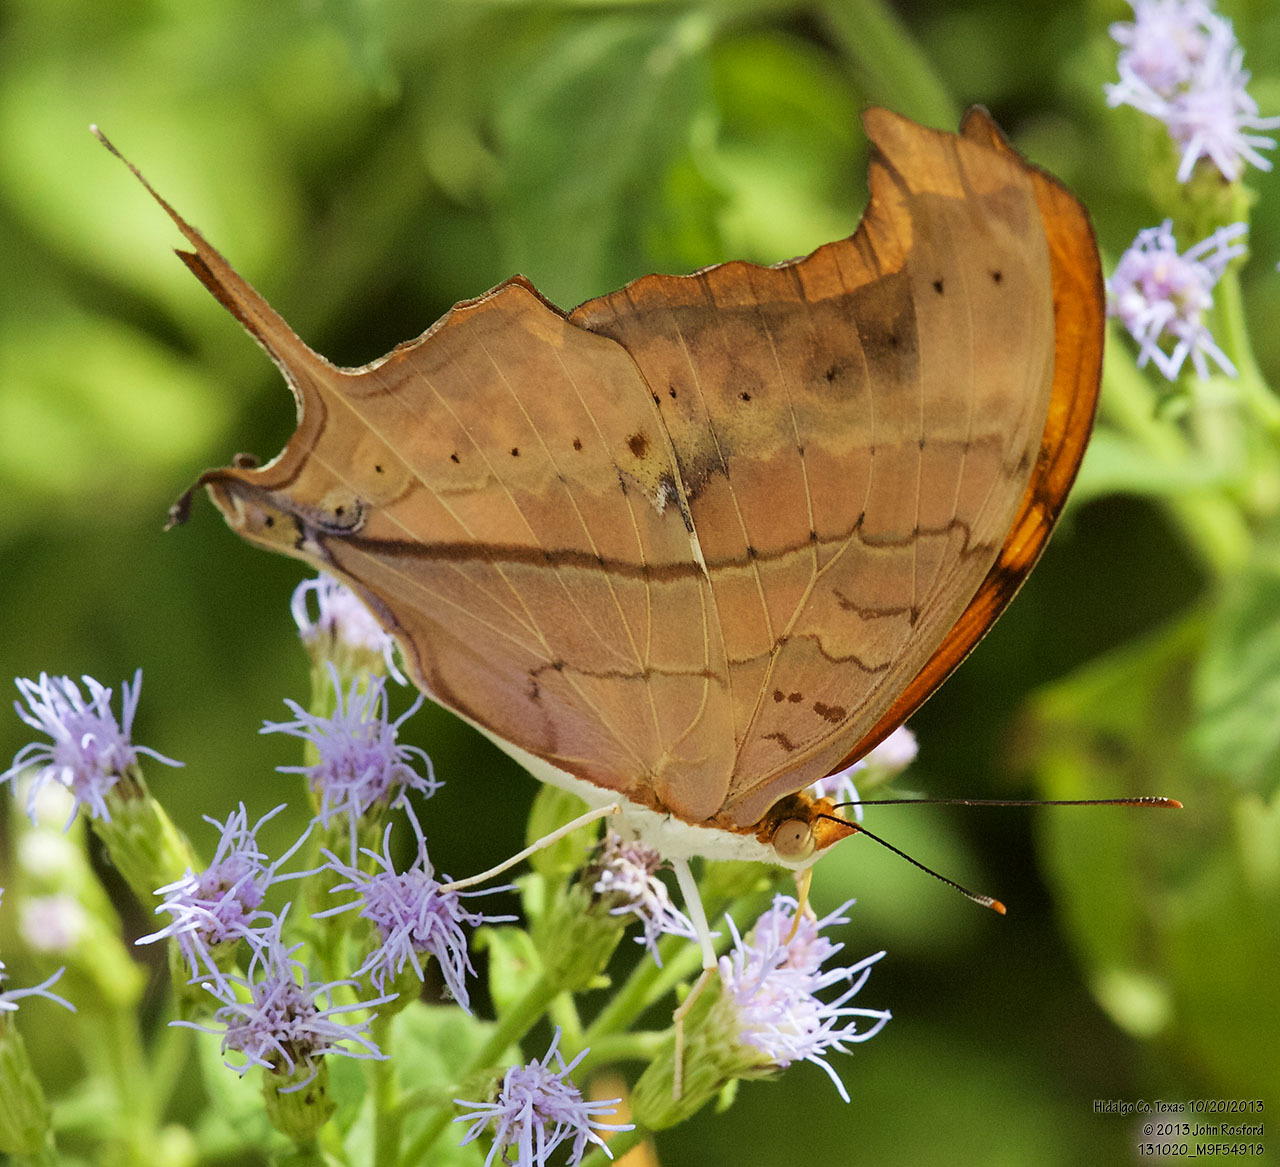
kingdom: Animalia
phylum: Arthropoda
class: Insecta
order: Lepidoptera
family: Nymphalidae
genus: Marpesia
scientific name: Marpesia petreus
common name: Red dagger wing
